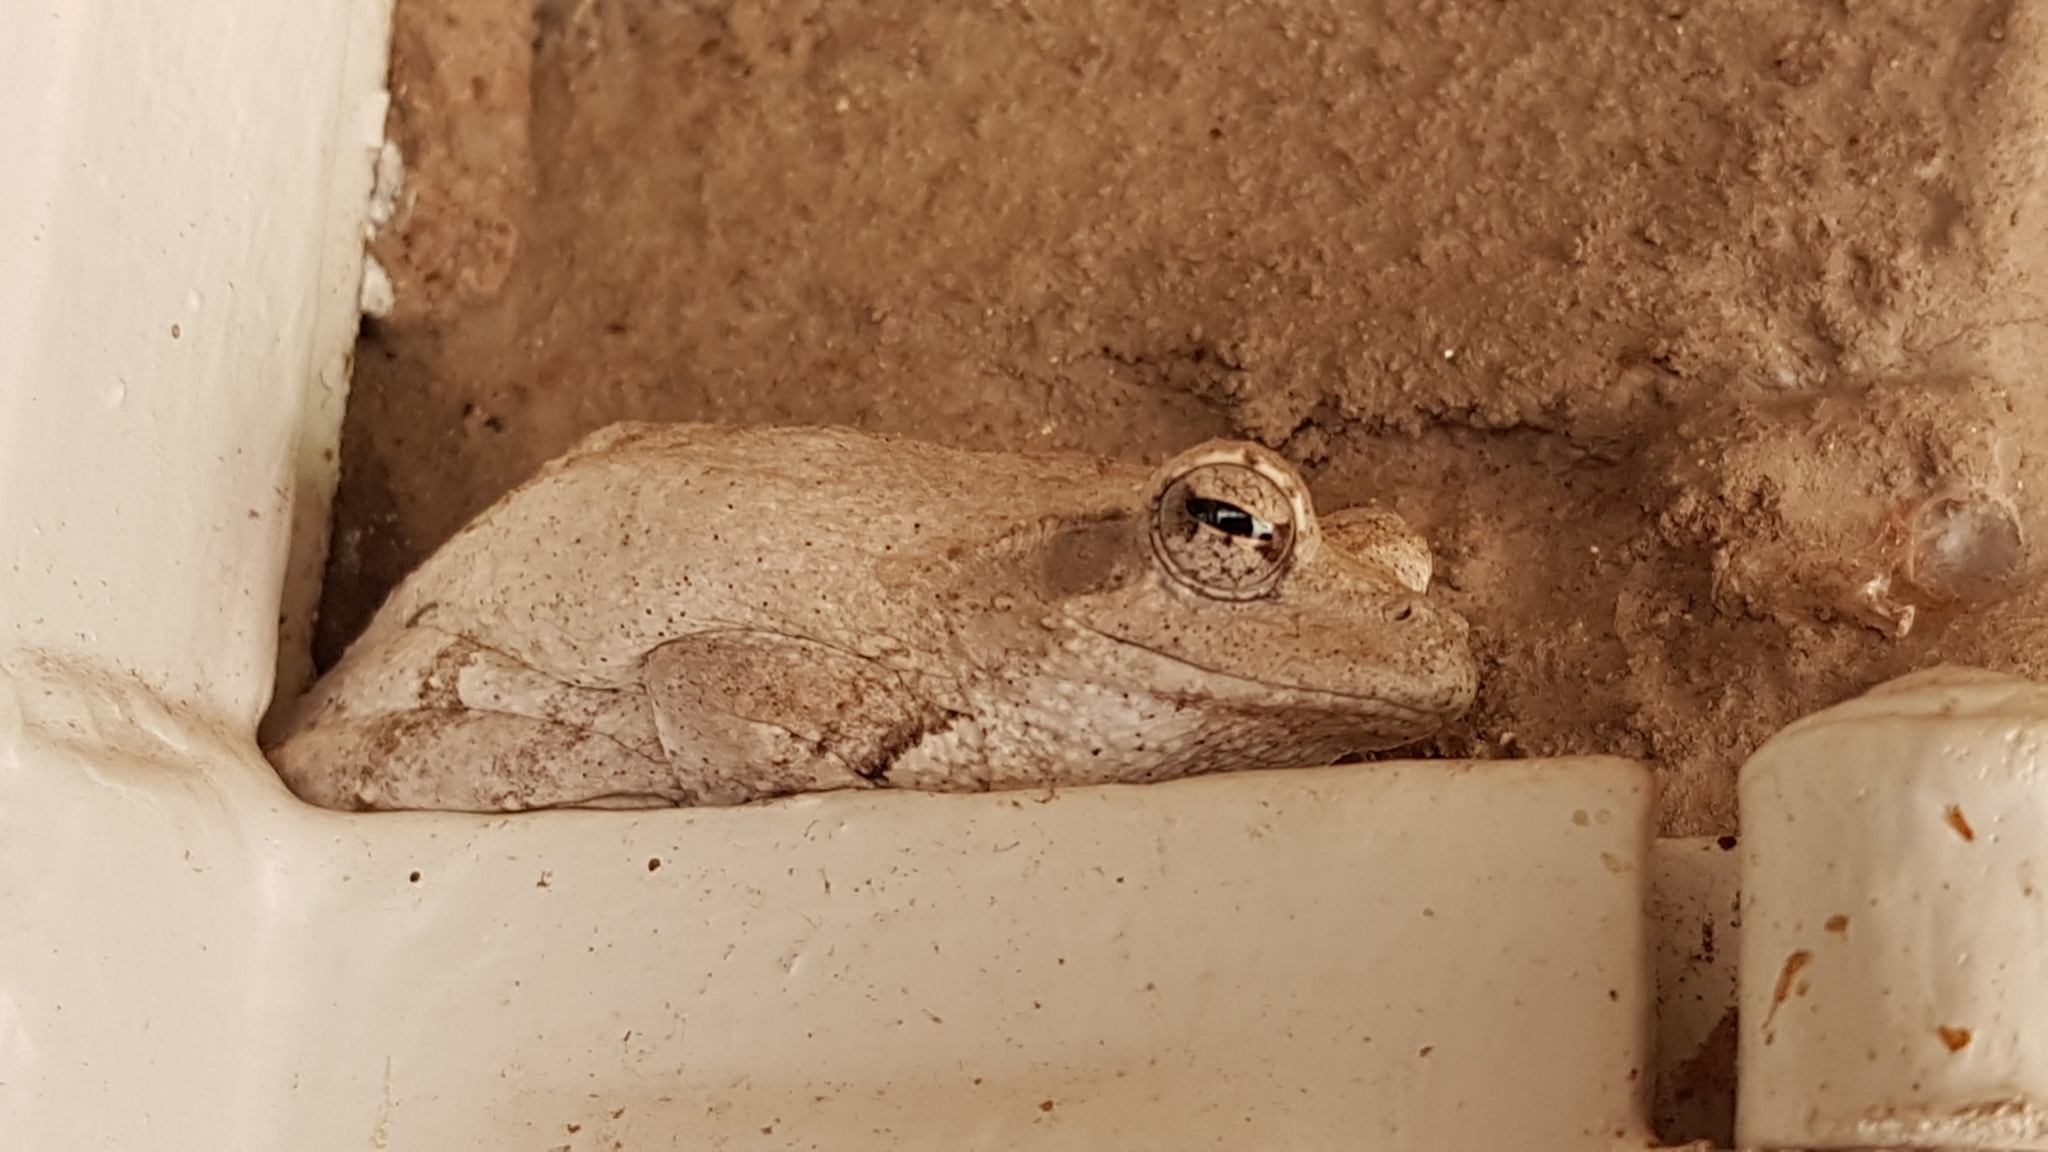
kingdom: Animalia
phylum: Chordata
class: Amphibia
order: Anura
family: Rhacophoridae
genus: Chiromantis
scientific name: Chiromantis xerampelina
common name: African gray treefrog
